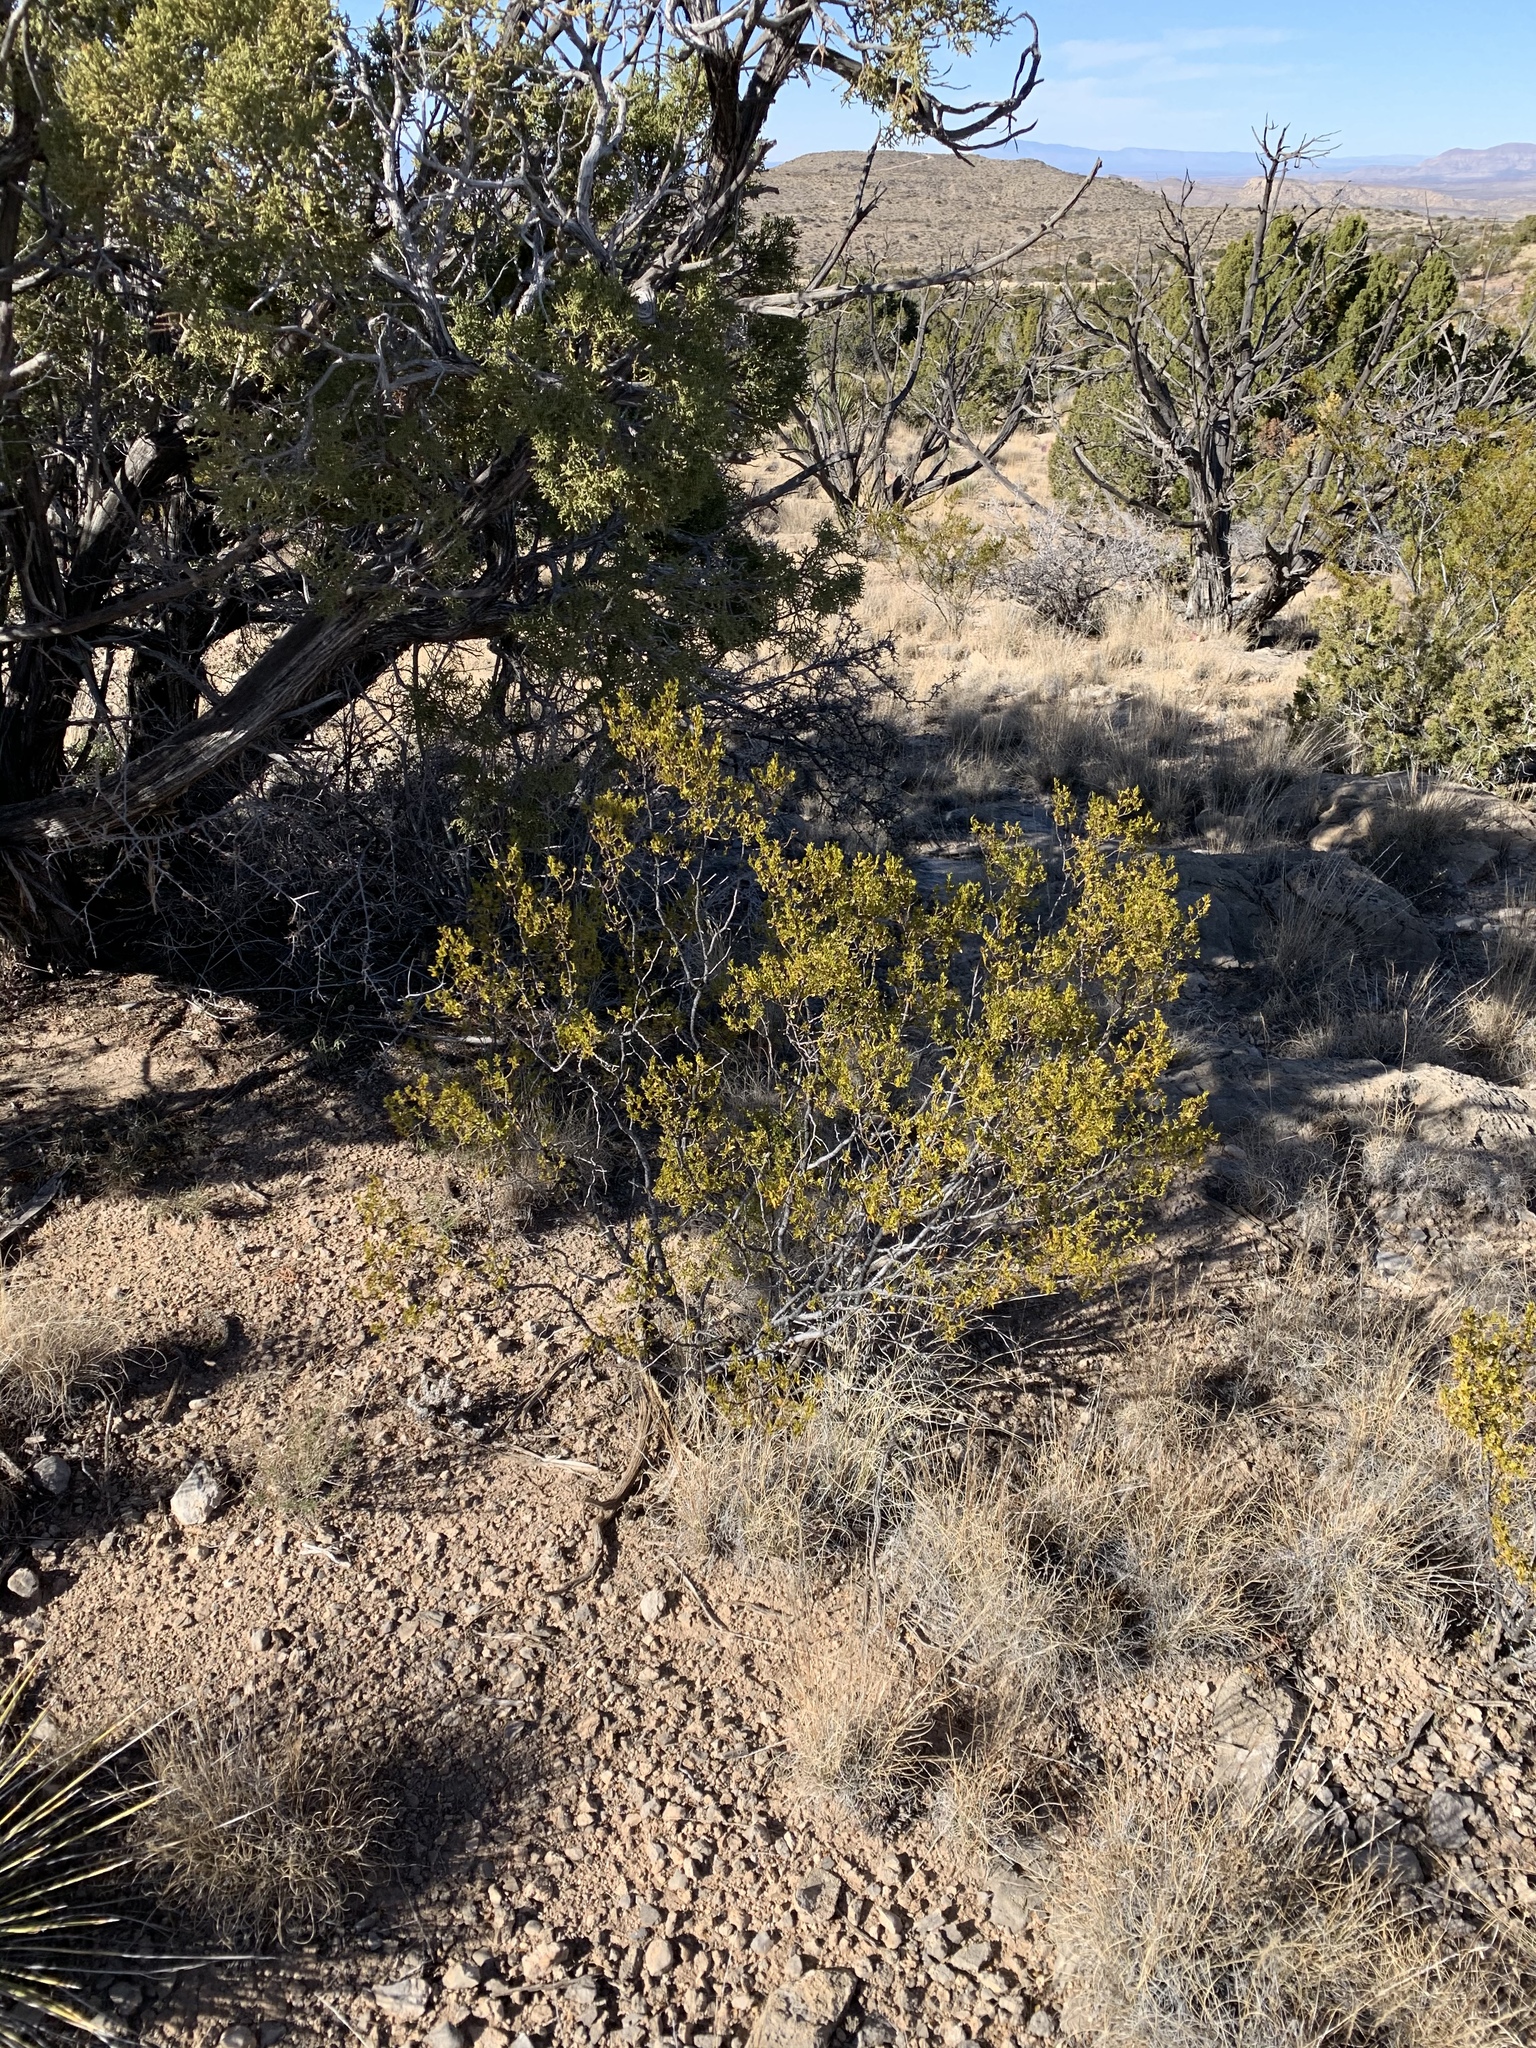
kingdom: Plantae
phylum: Tracheophyta
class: Magnoliopsida
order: Zygophyllales
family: Zygophyllaceae
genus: Larrea
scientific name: Larrea tridentata
